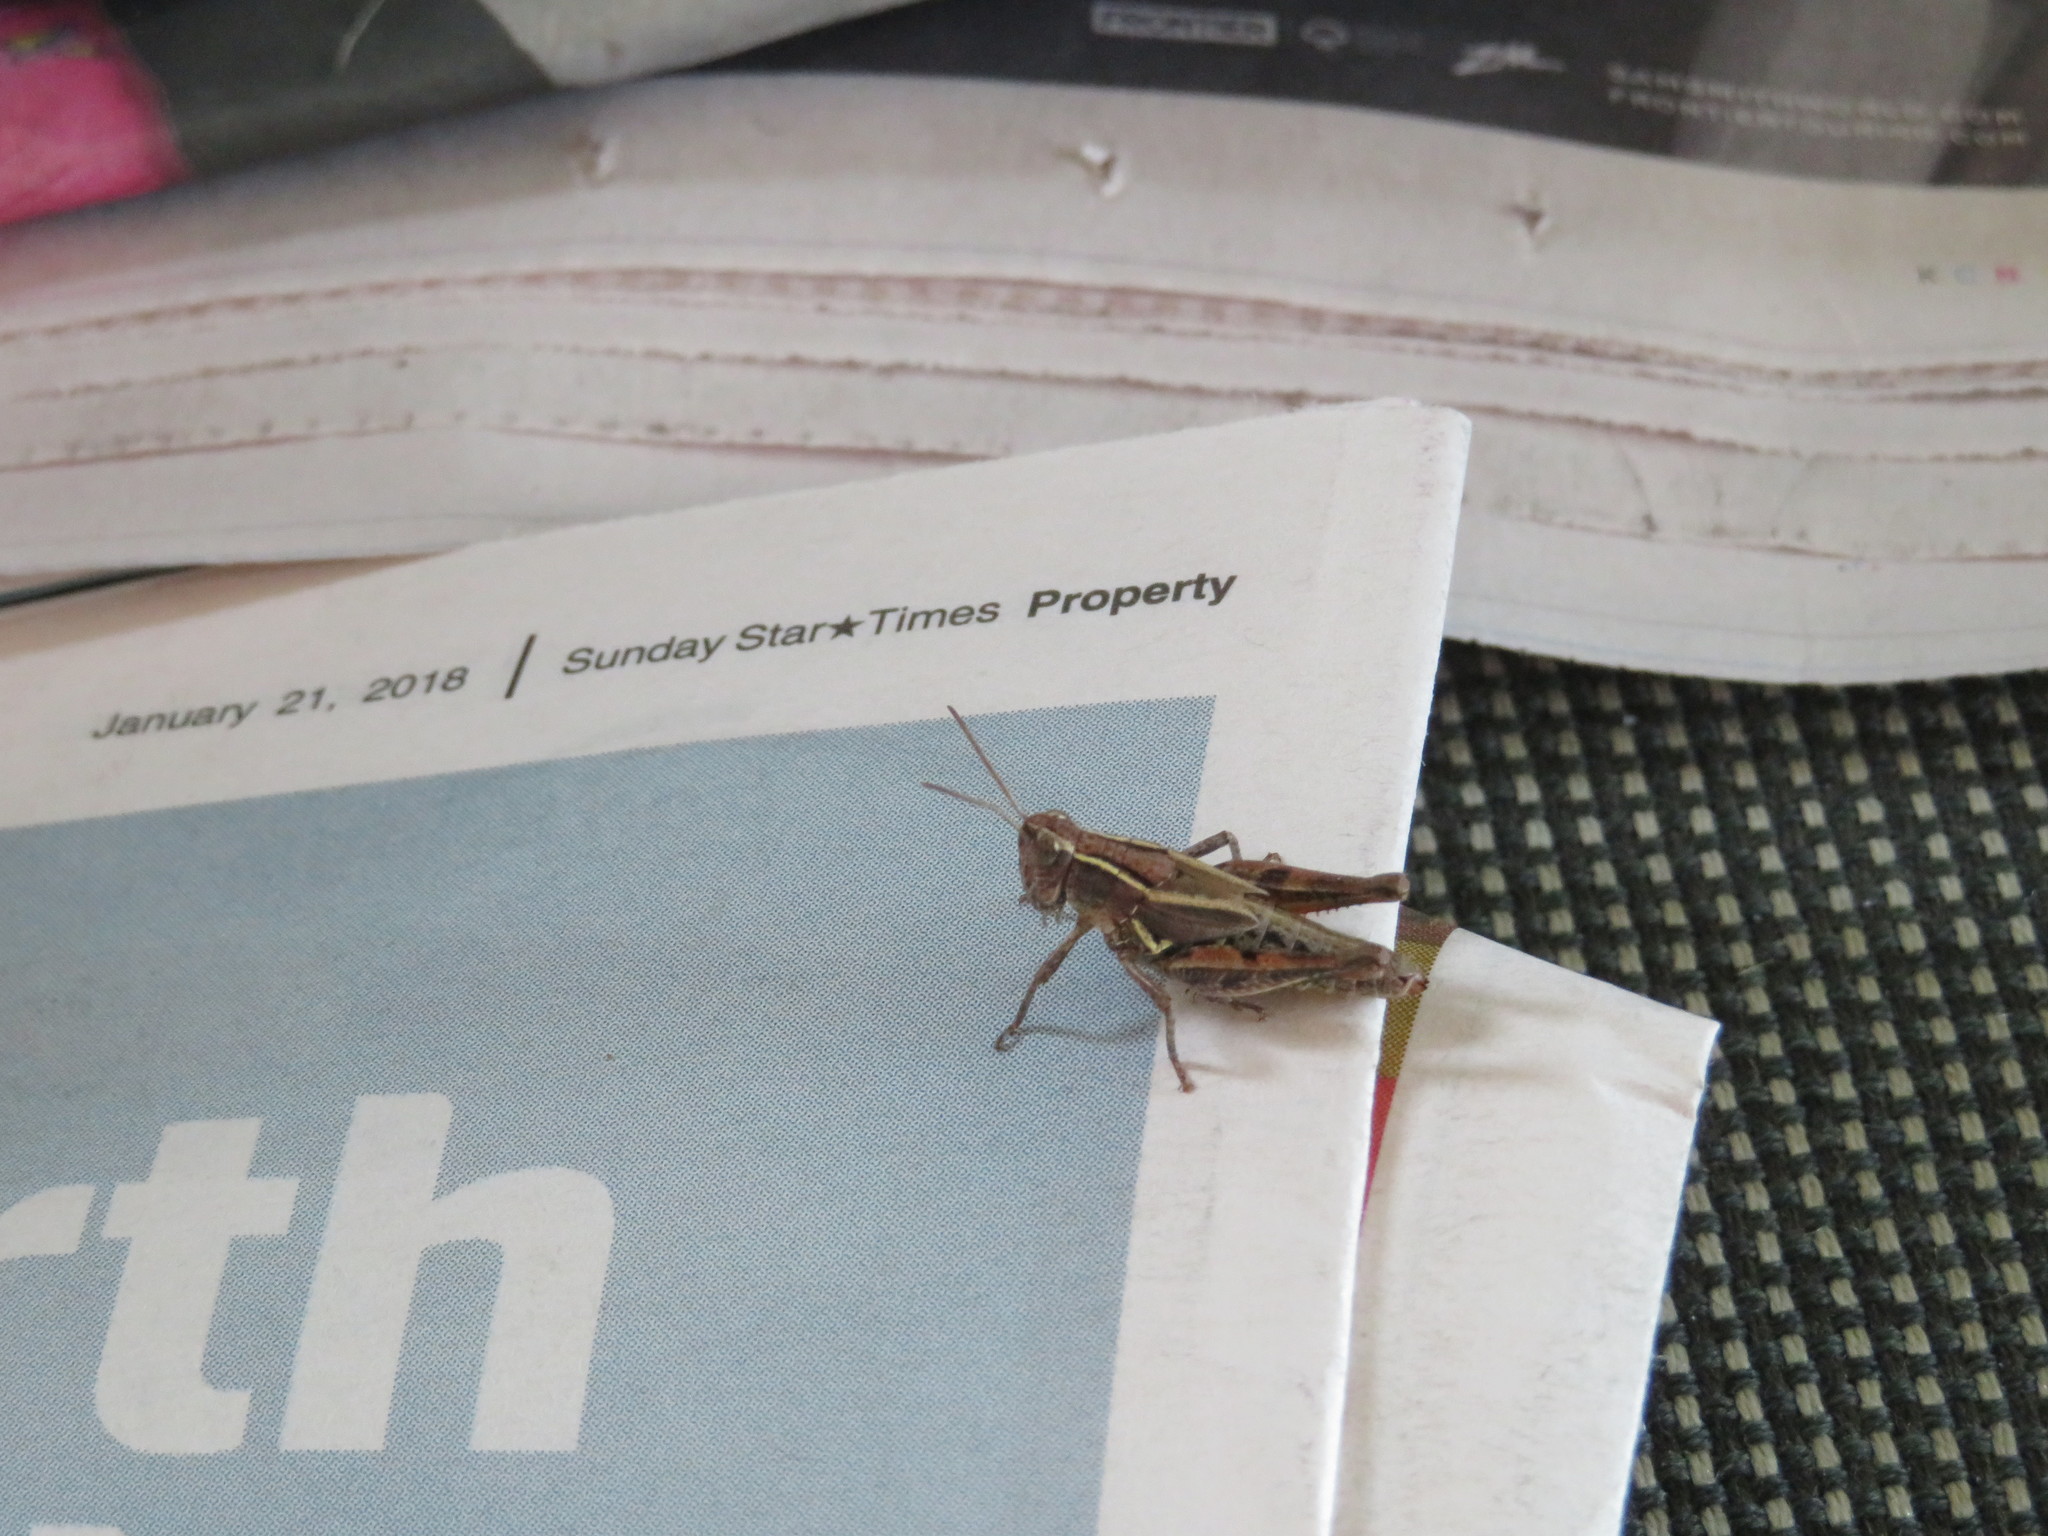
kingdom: Animalia
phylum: Arthropoda
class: Insecta
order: Orthoptera
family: Acrididae
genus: Phaulacridium
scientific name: Phaulacridium marginale
